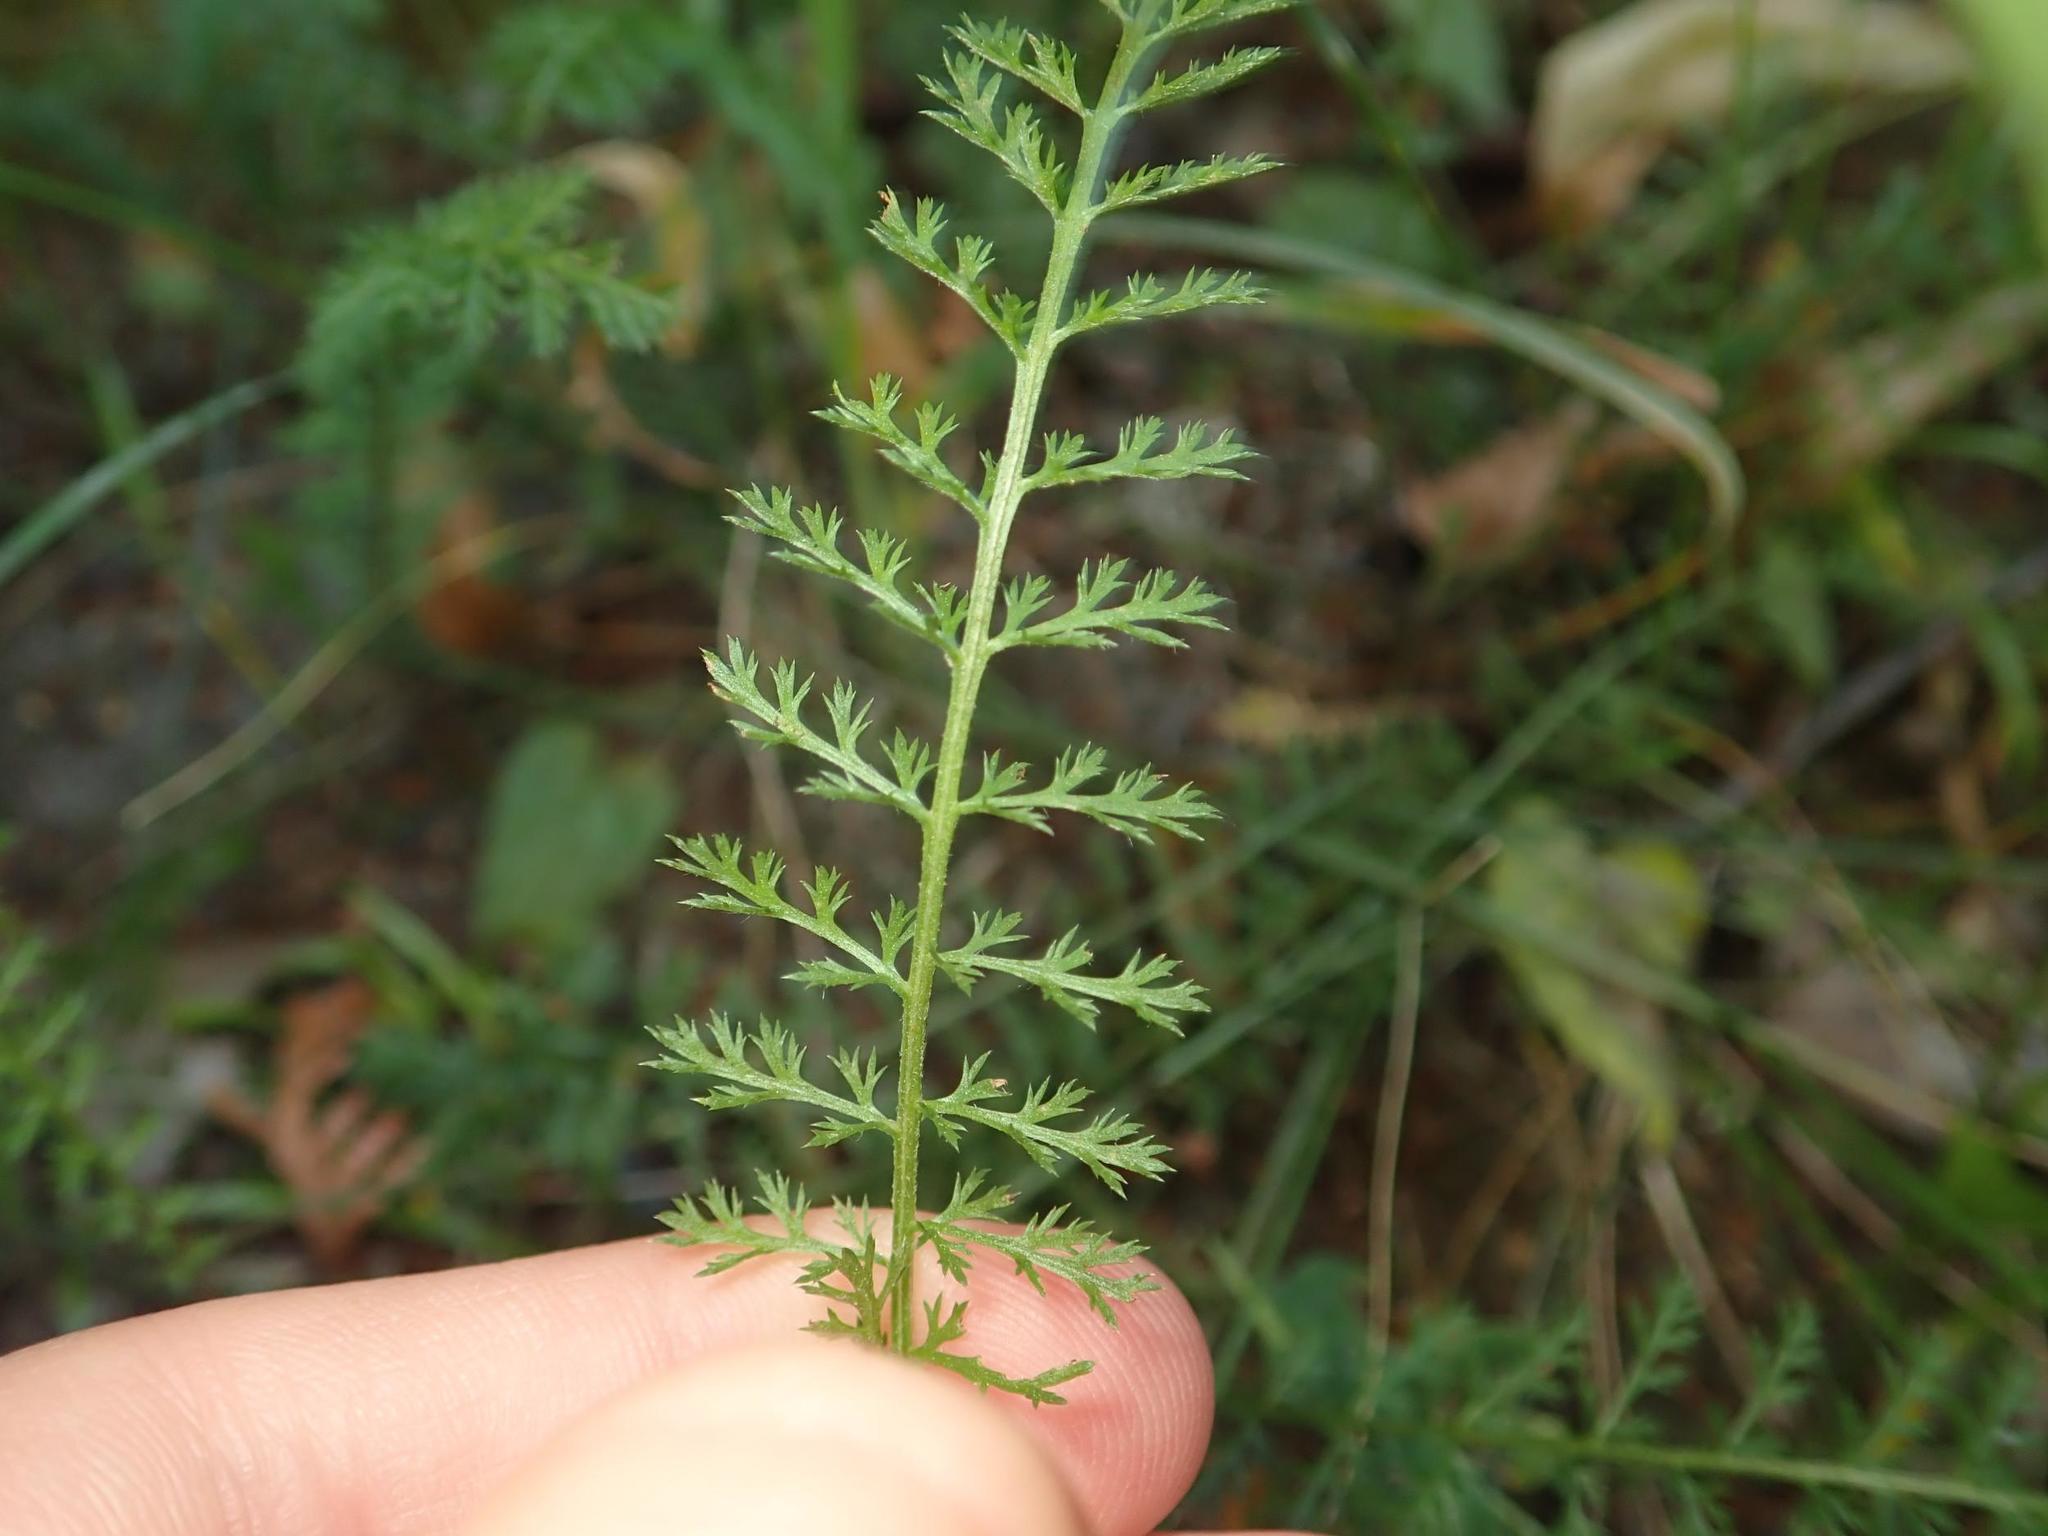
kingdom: Plantae
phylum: Tracheophyta
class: Magnoliopsida
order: Asterales
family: Asteraceae
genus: Achillea
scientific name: Achillea millefolium
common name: Yarrow
